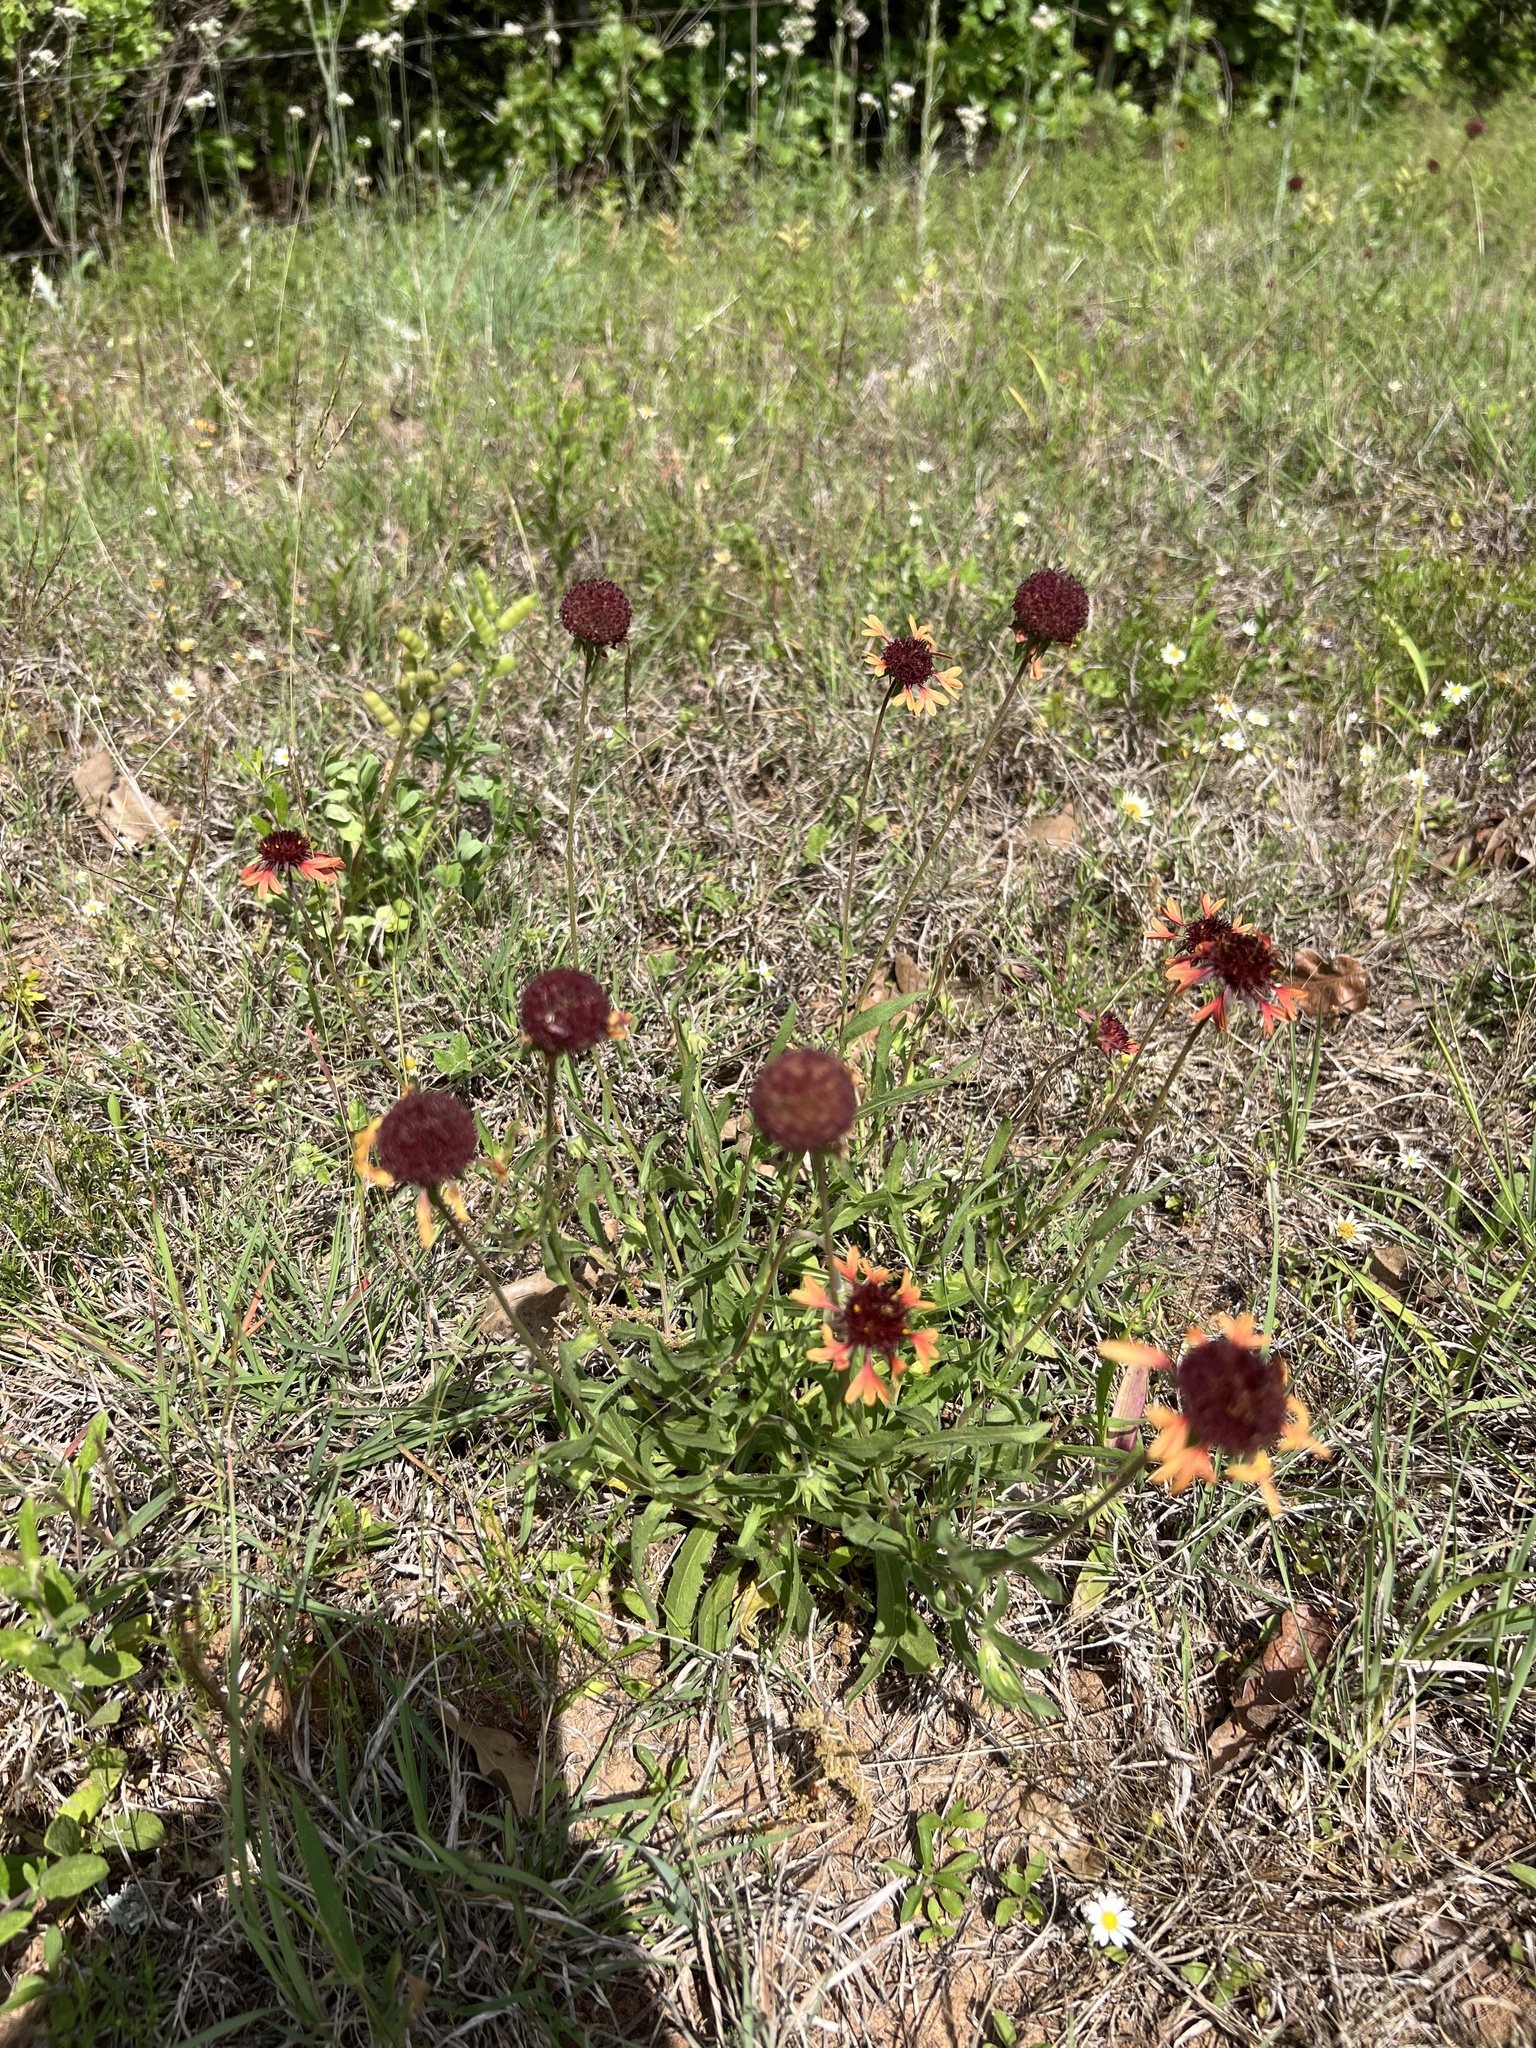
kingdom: Plantae
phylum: Tracheophyta
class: Magnoliopsida
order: Asterales
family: Asteraceae
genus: Gaillardia
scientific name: Gaillardia aestivalis
